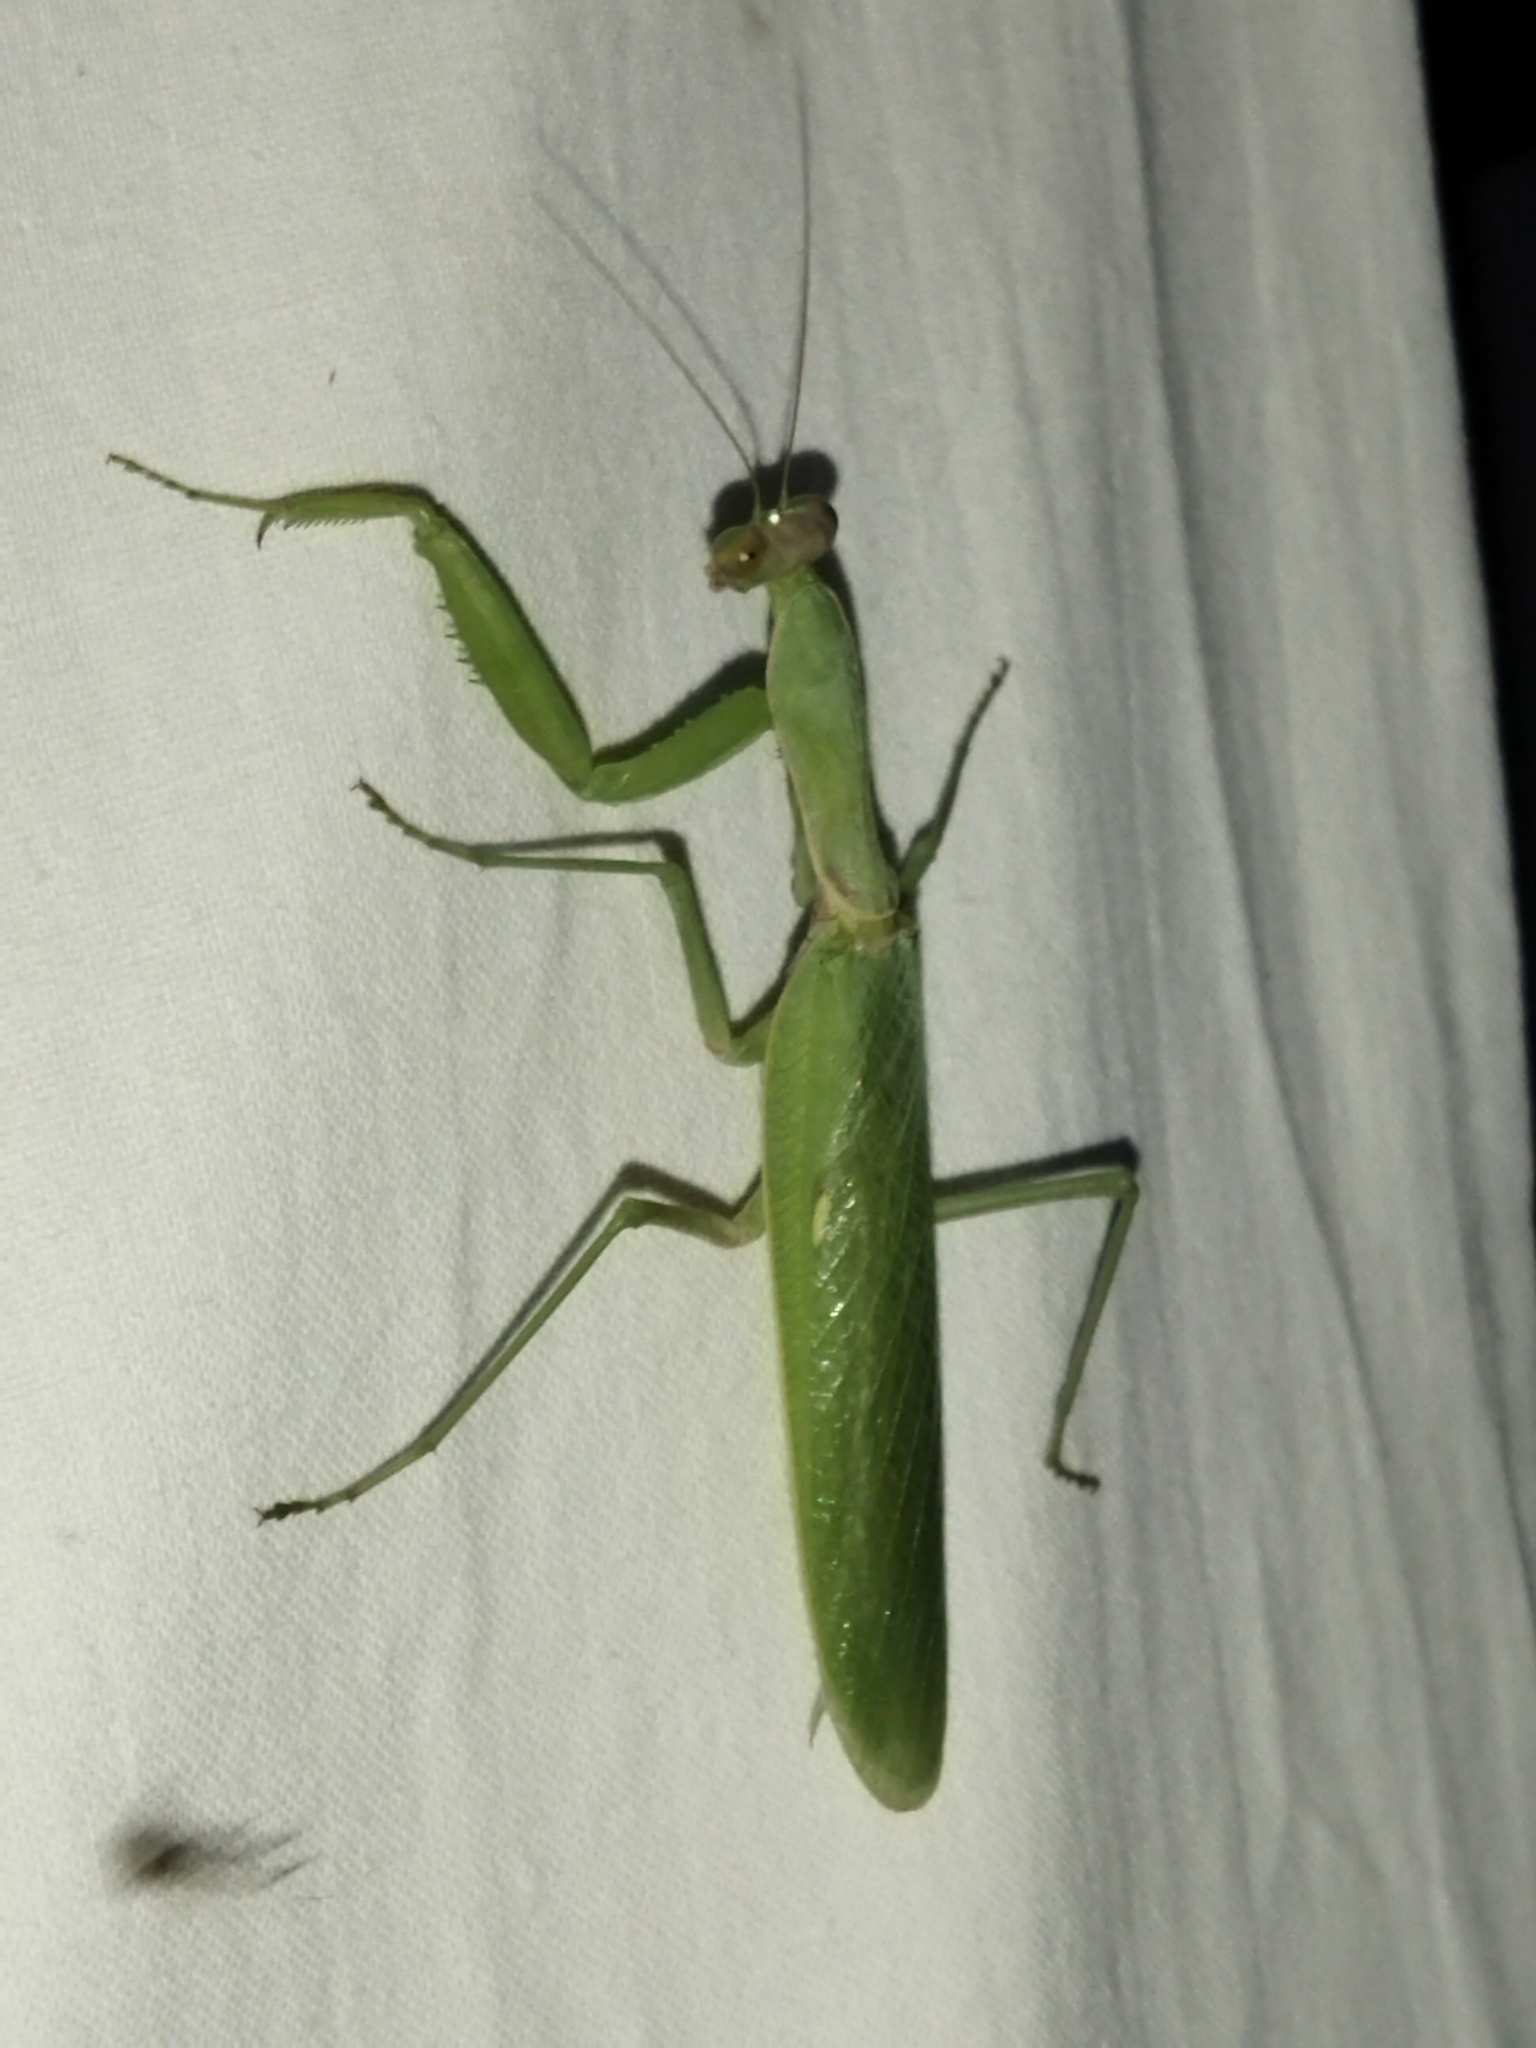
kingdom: Animalia
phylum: Arthropoda
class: Insecta
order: Mantodea
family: Mantidae
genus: Hierodula
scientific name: Hierodula transcaucasica
